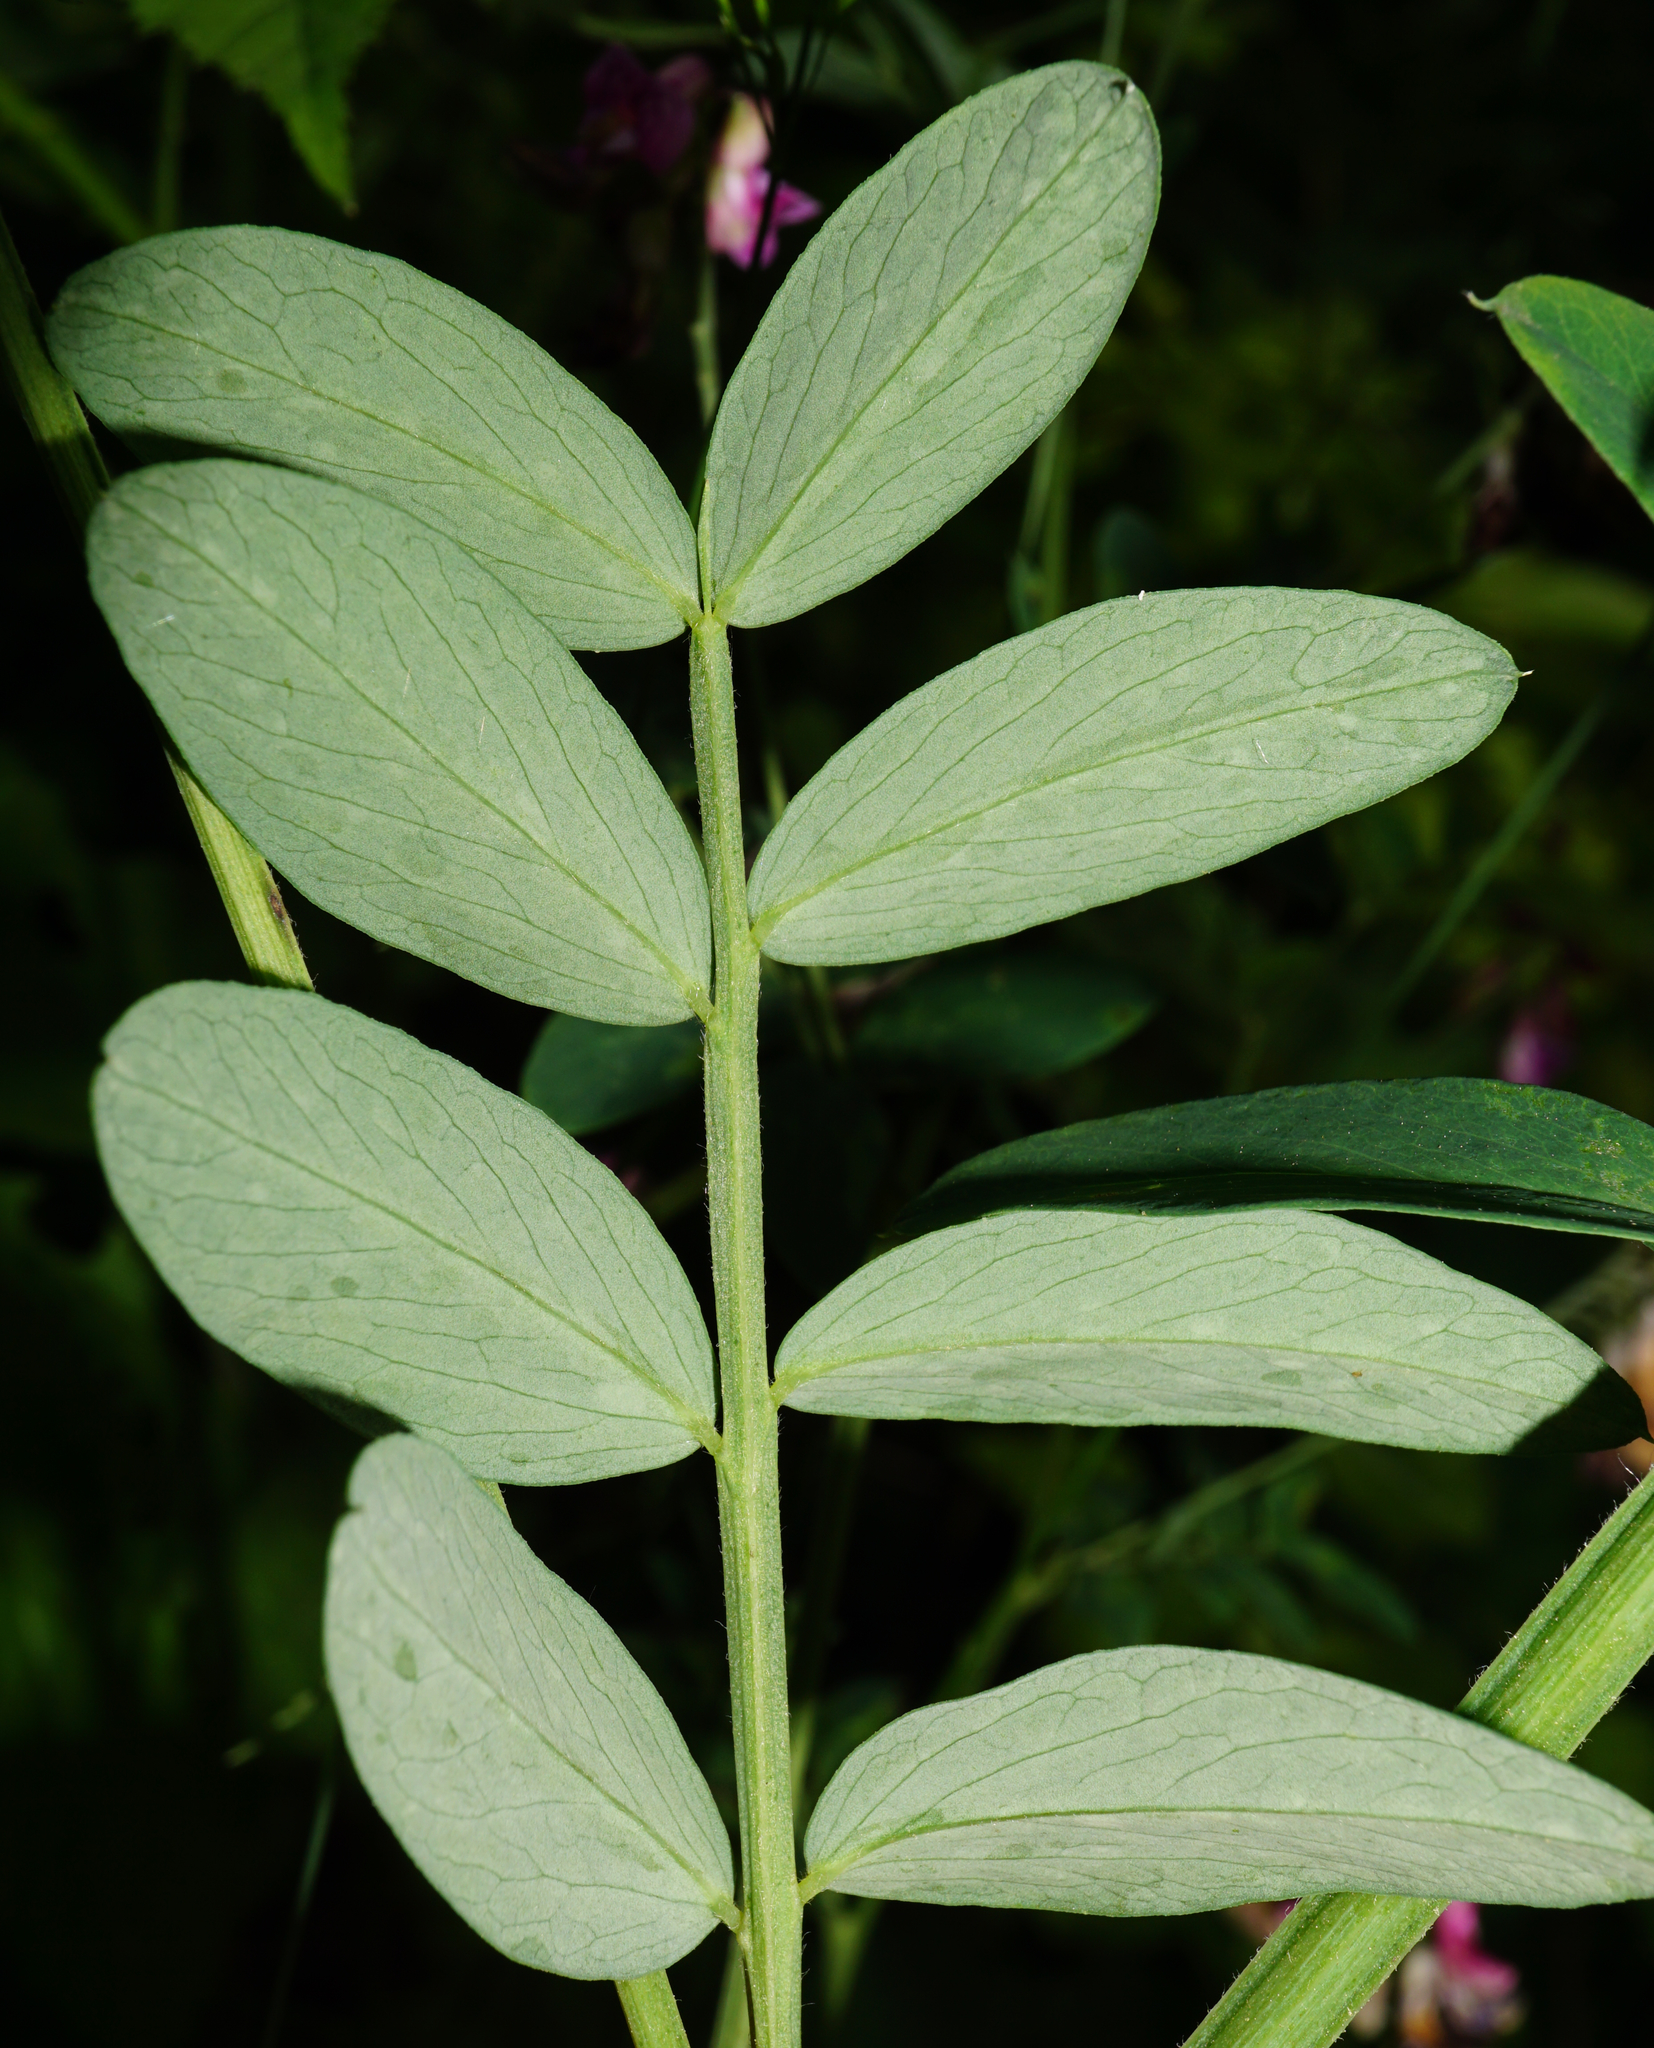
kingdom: Plantae
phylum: Tracheophyta
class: Magnoliopsida
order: Fabales
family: Fabaceae
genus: Lathyrus
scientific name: Lathyrus niger
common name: Black pea
